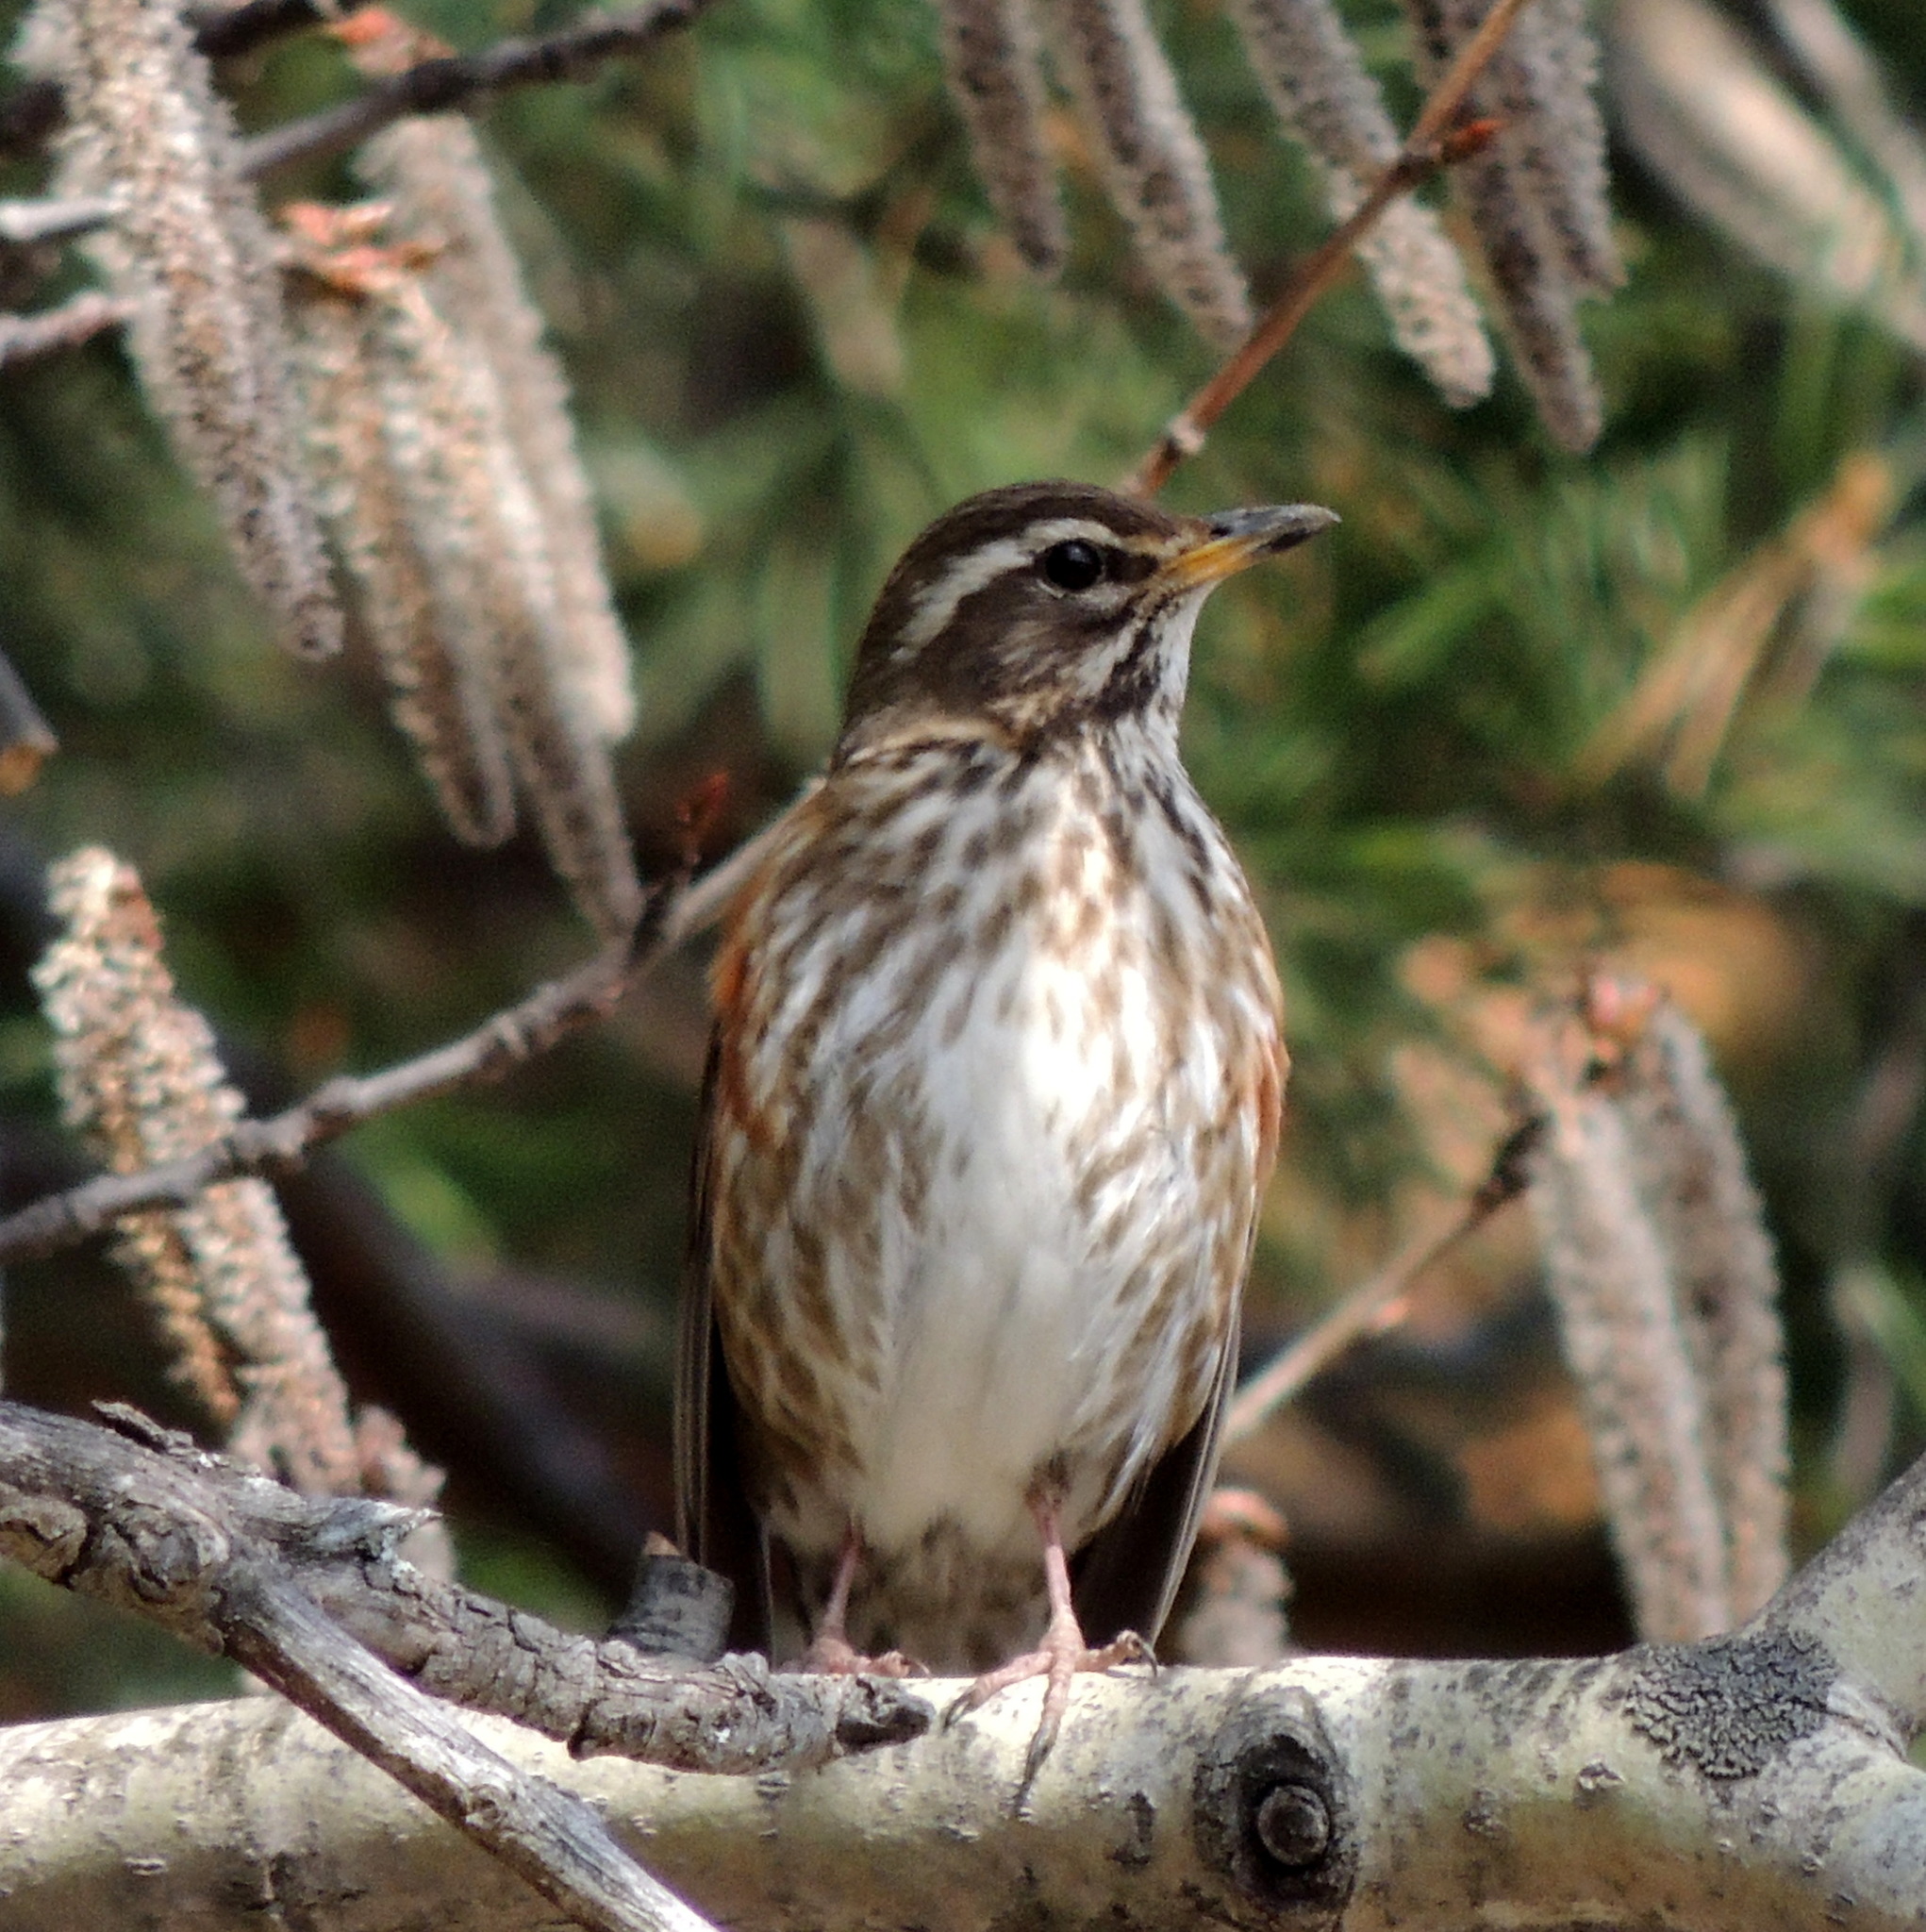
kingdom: Animalia
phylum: Chordata
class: Aves
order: Passeriformes
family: Turdidae
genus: Turdus
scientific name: Turdus iliacus
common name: Redwing
